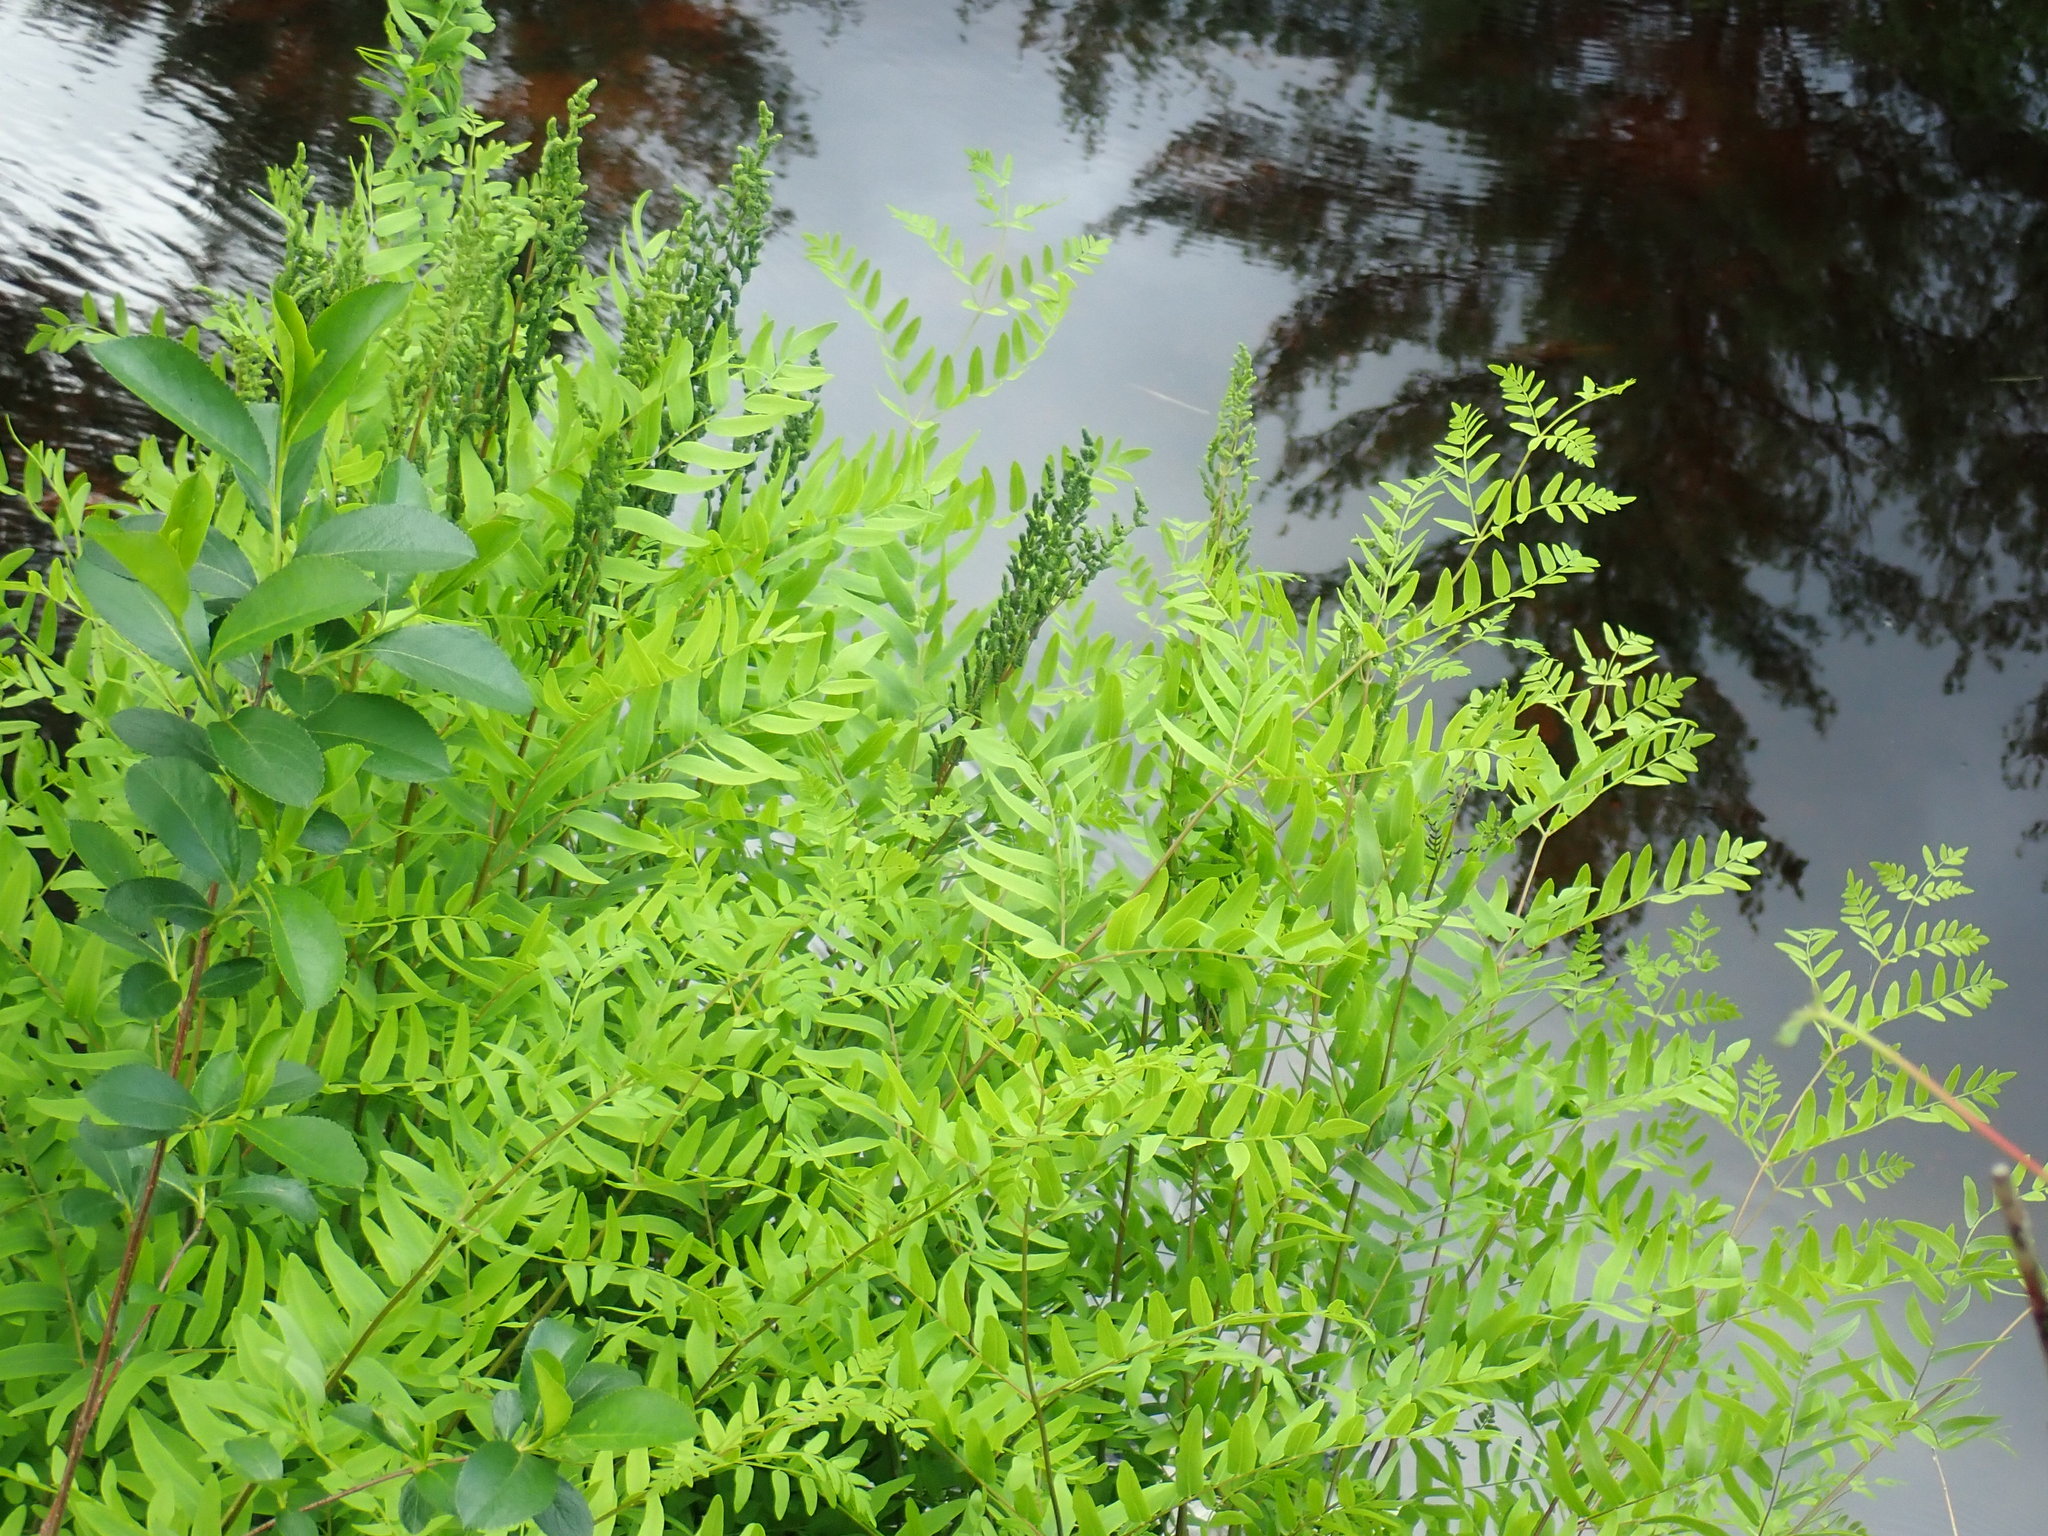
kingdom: Plantae
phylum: Tracheophyta
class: Polypodiopsida
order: Osmundales
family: Osmundaceae
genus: Osmunda
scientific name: Osmunda spectabilis
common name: American royal fern
